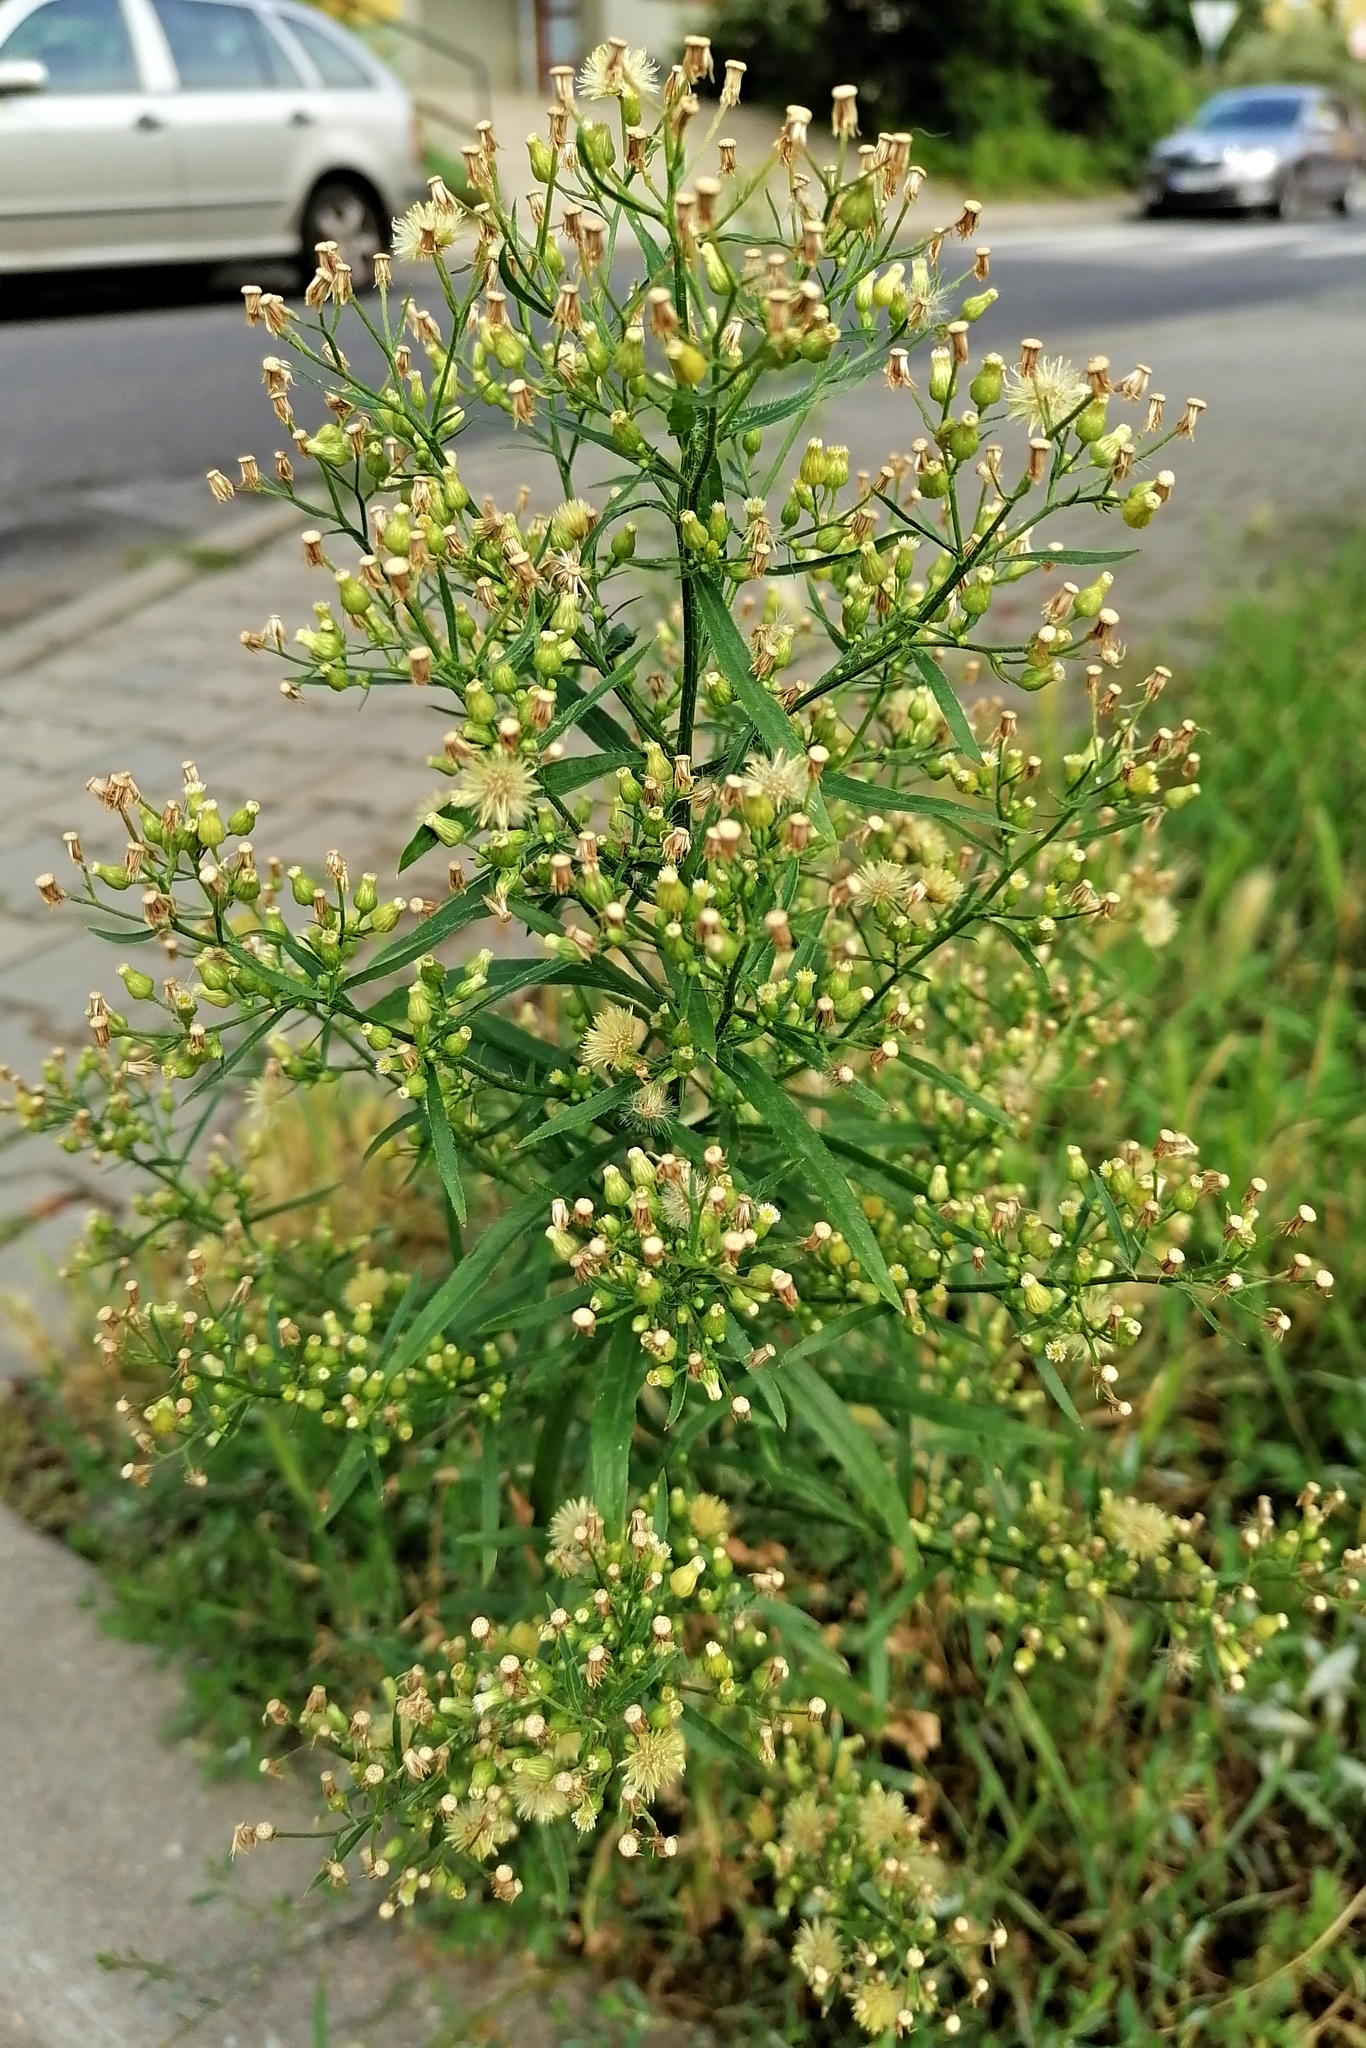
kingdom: Plantae
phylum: Tracheophyta
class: Magnoliopsida
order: Asterales
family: Asteraceae
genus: Erigeron
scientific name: Erigeron canadensis
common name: Canadian fleabane
